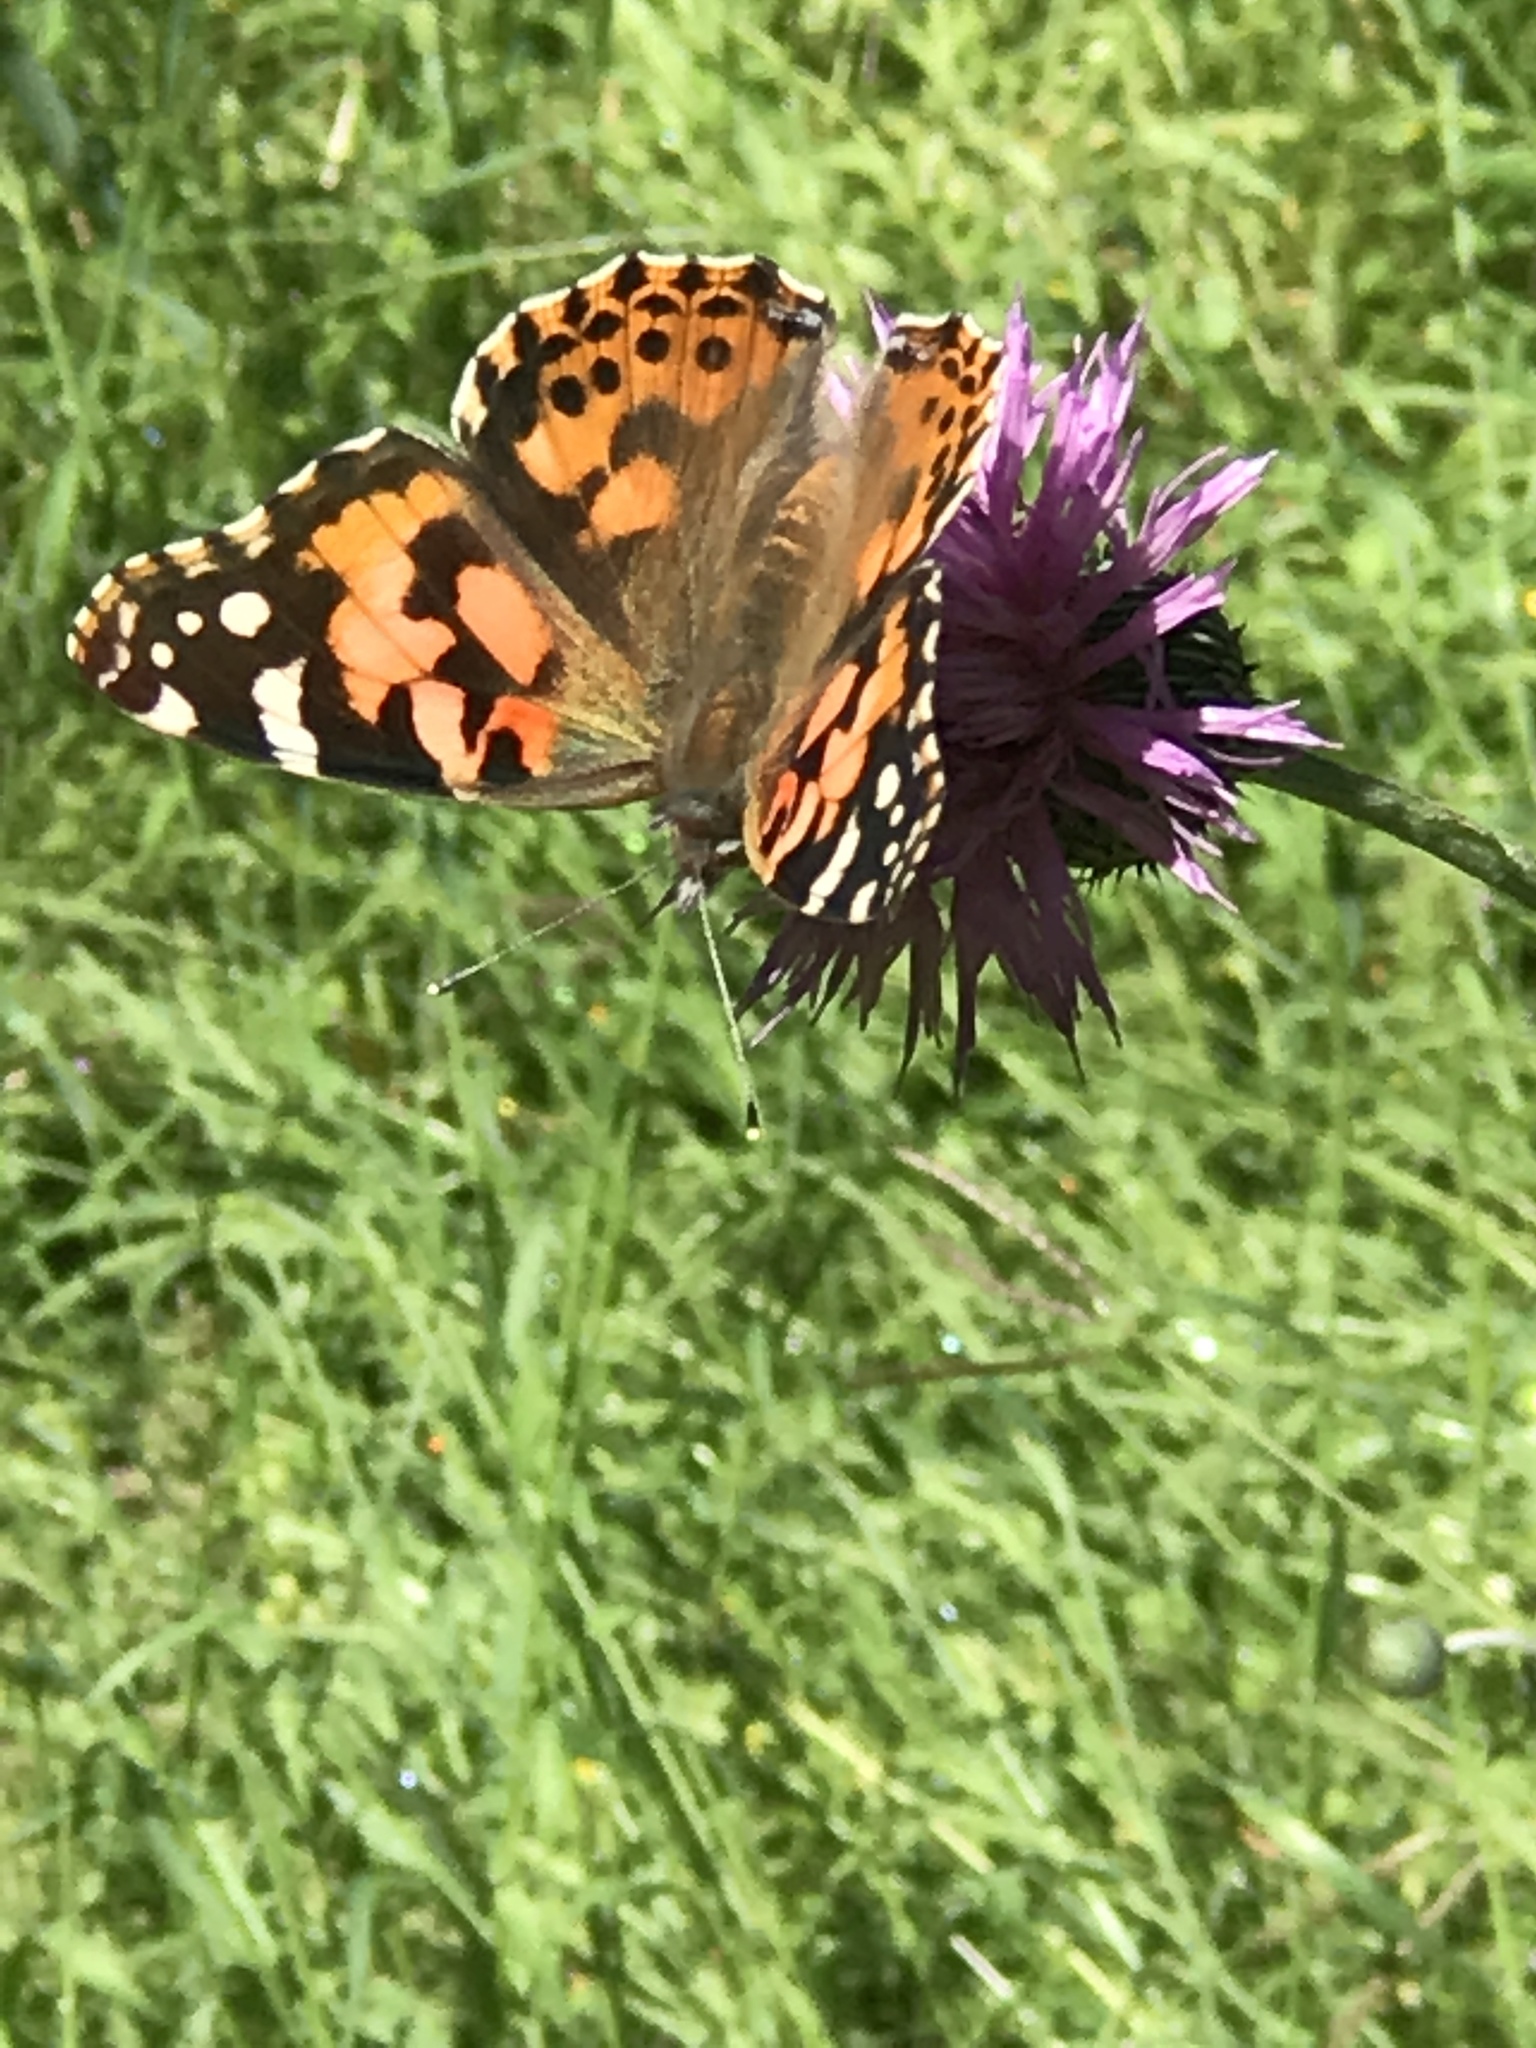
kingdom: Animalia
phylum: Arthropoda
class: Insecta
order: Lepidoptera
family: Nymphalidae
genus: Vanessa
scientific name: Vanessa cardui
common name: Painted lady
